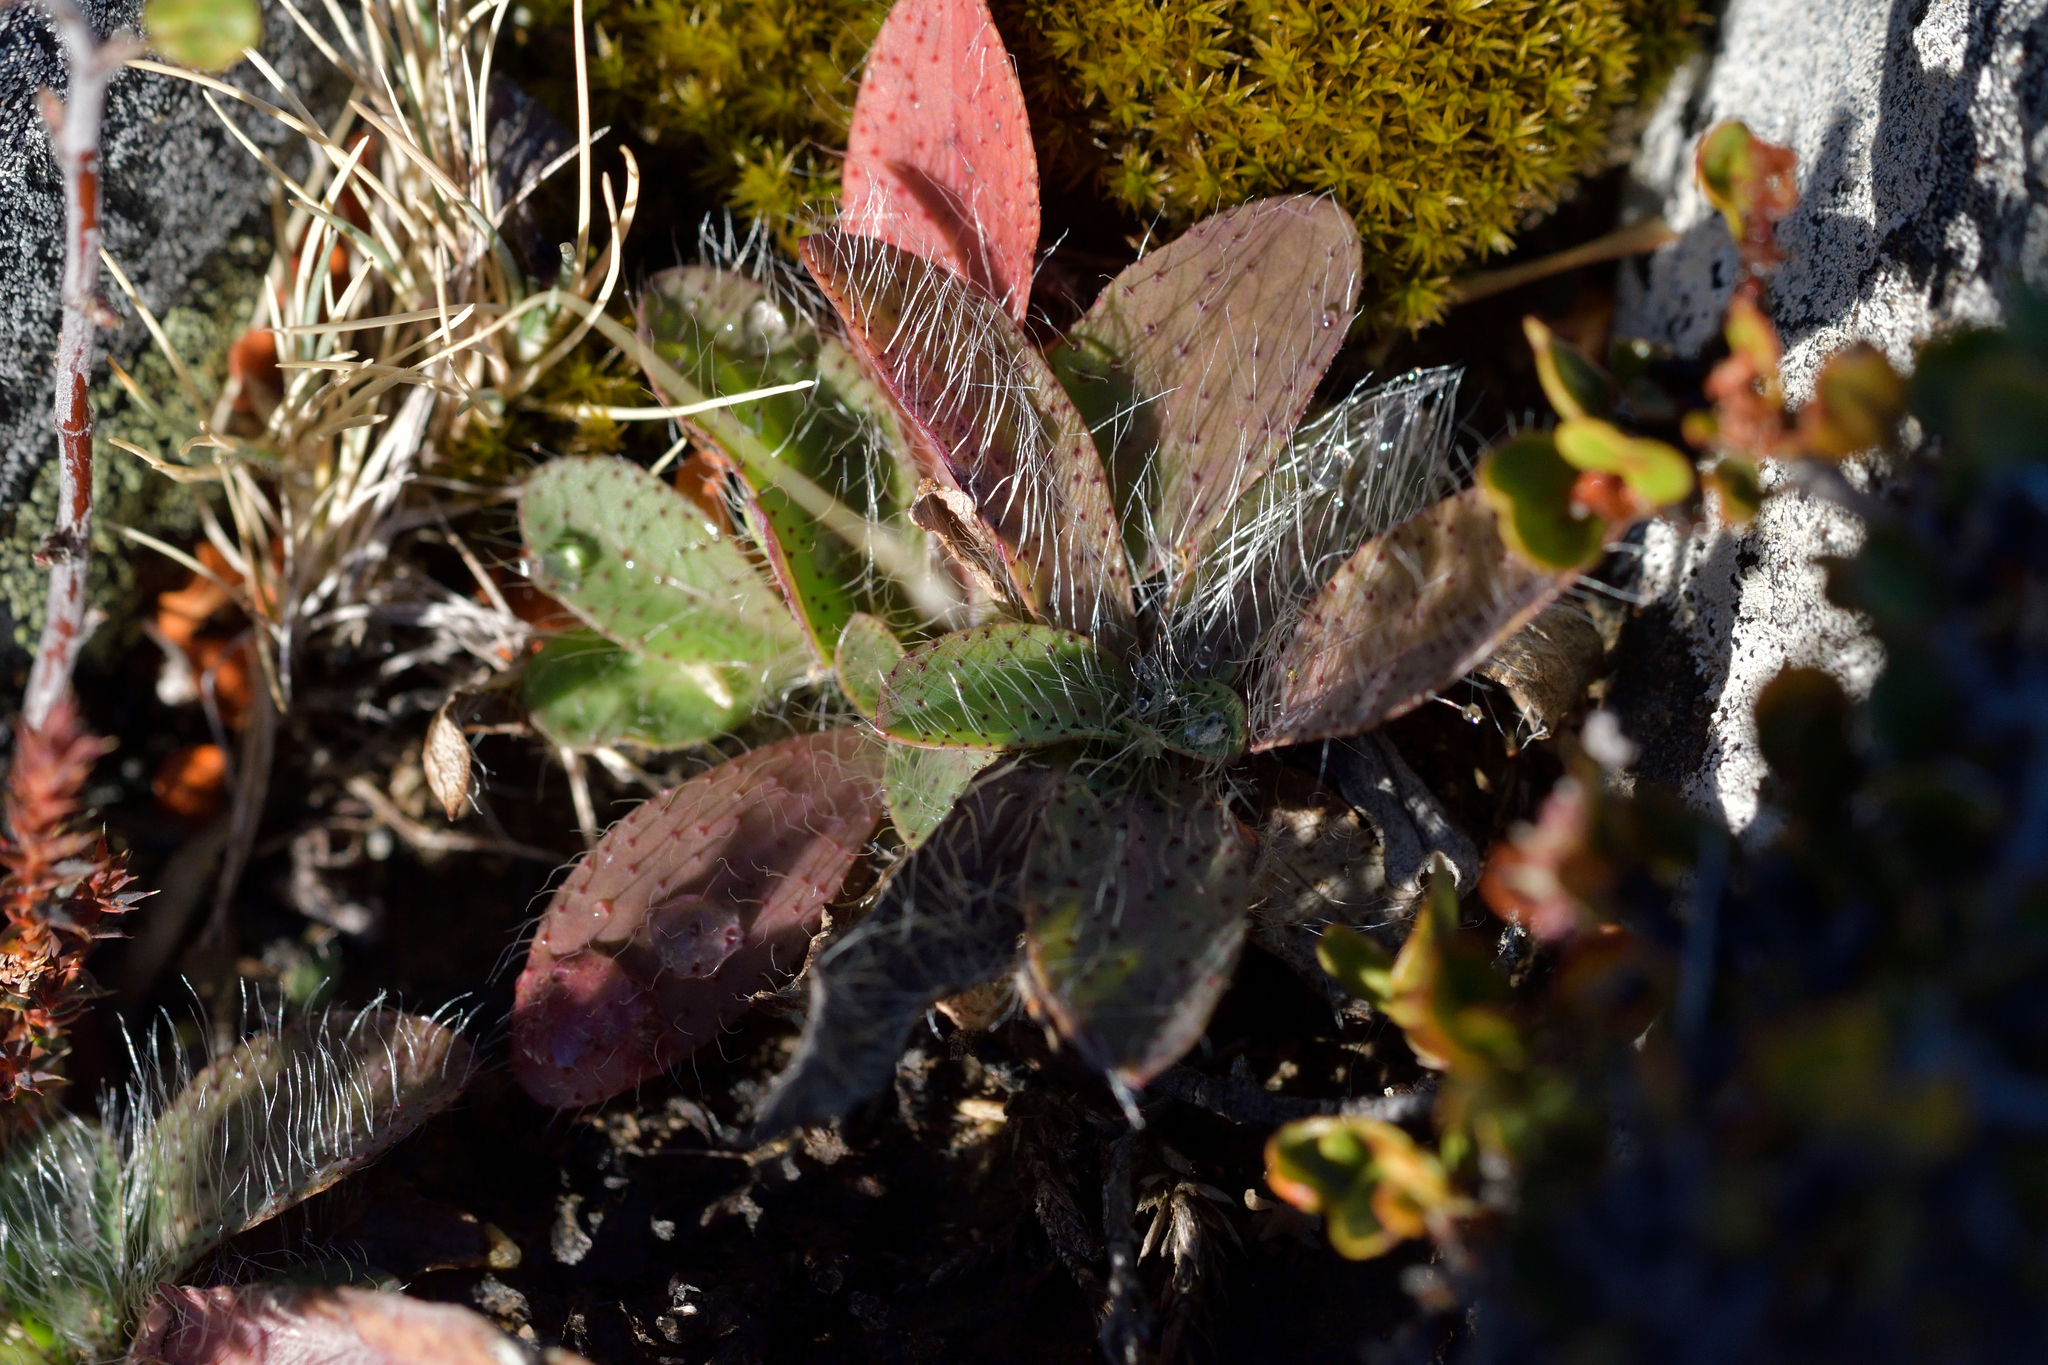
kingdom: Plantae
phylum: Tracheophyta
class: Magnoliopsida
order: Asterales
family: Asteraceae
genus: Pilosella
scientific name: Pilosella officinarum
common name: Mouse-ear hawkweed
